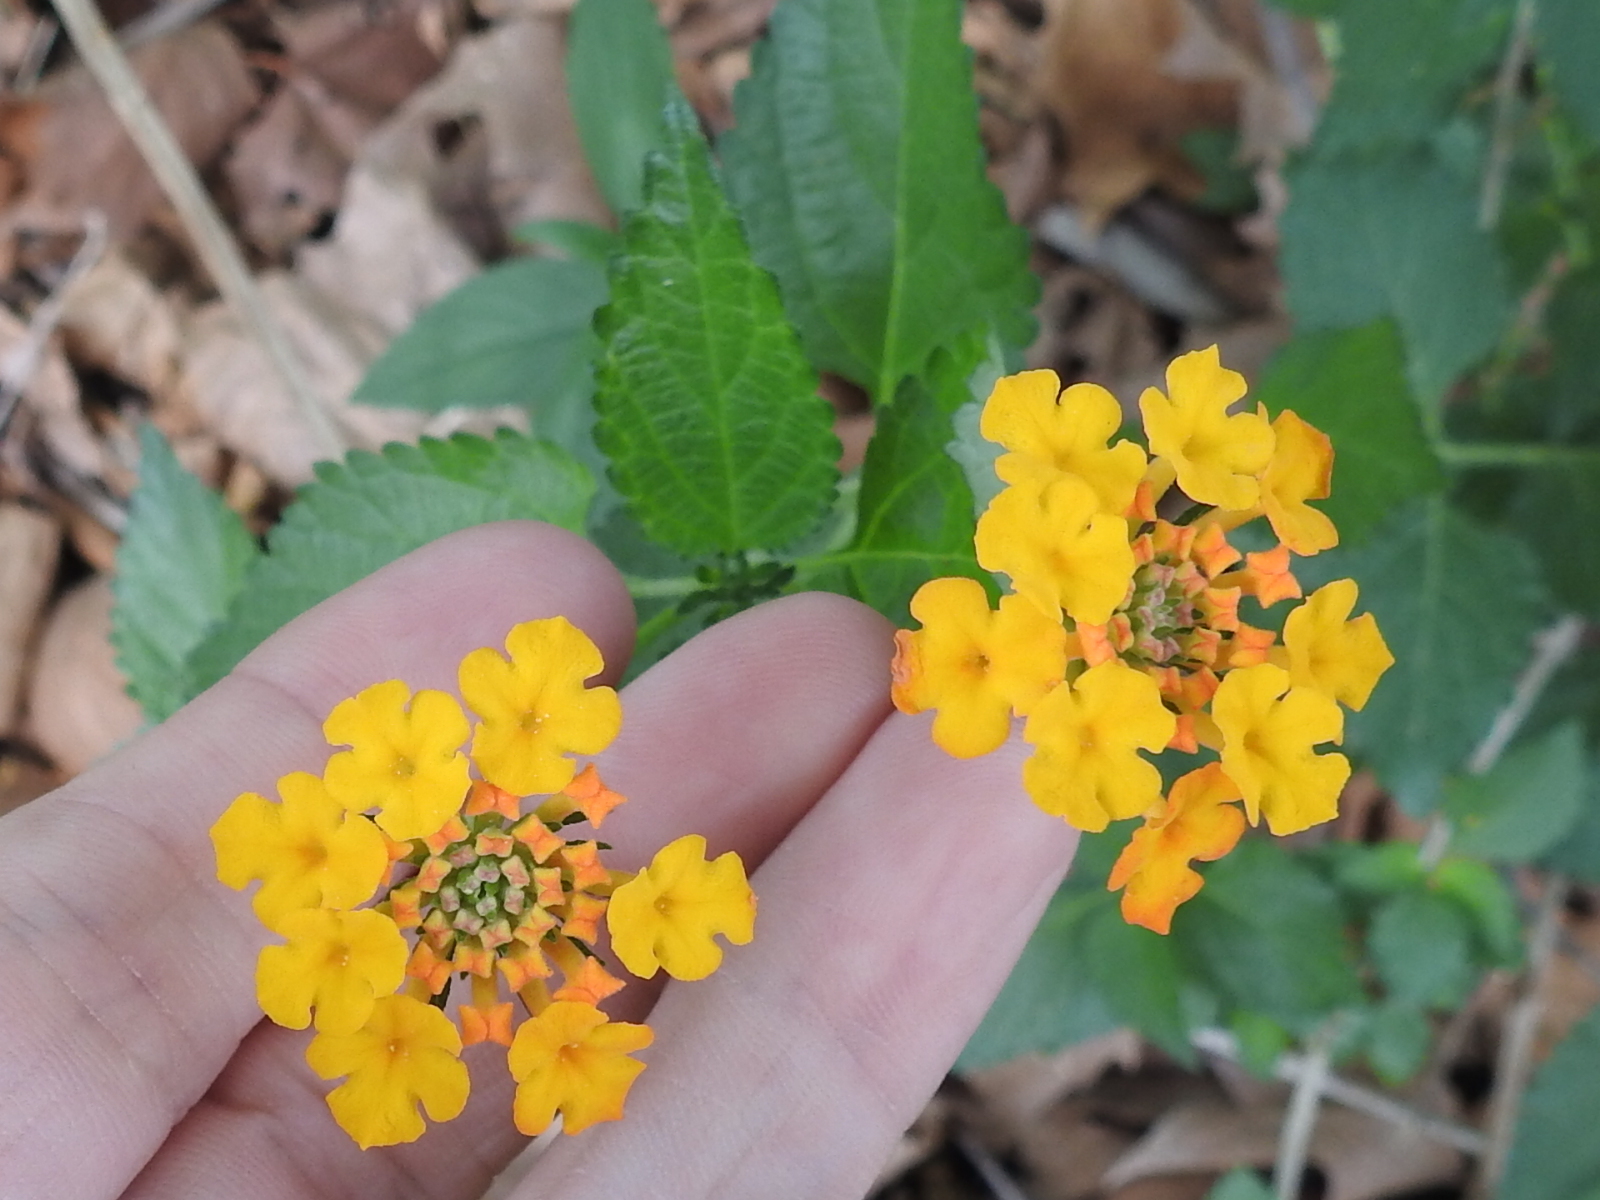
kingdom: Plantae
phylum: Tracheophyta
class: Magnoliopsida
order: Lamiales
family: Verbenaceae
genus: Lantana
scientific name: Lantana urticoides
